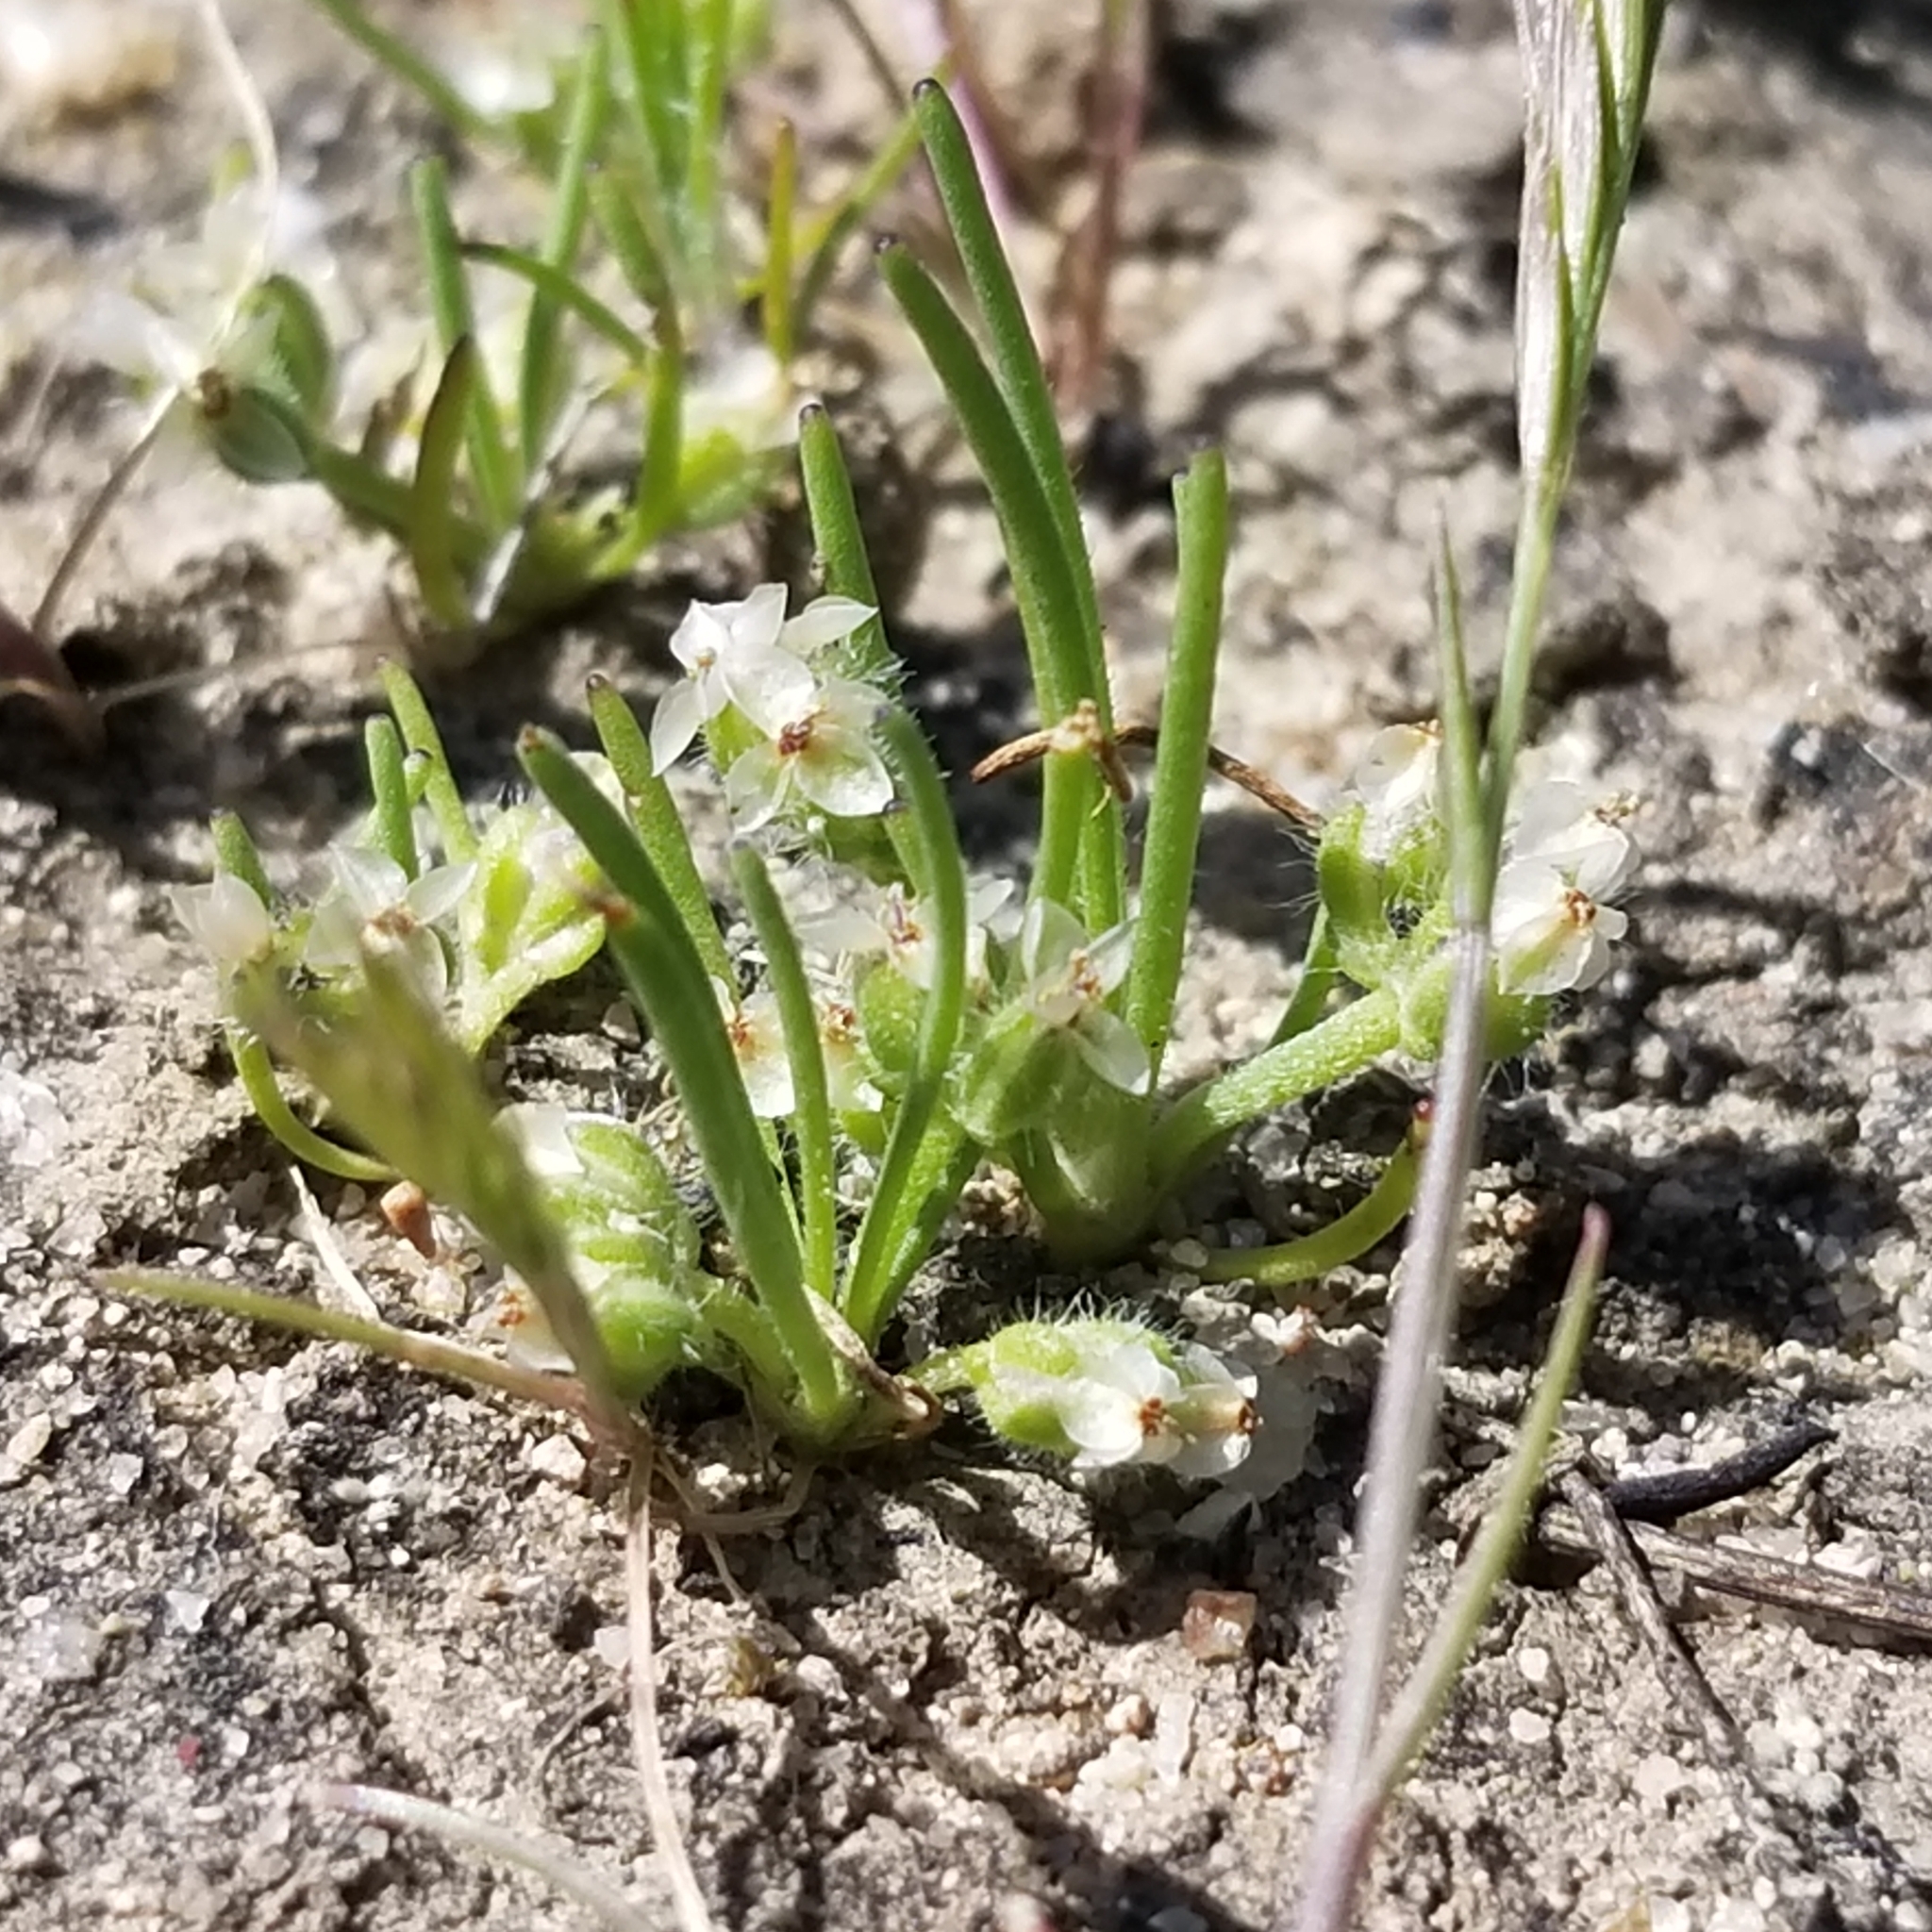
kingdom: Plantae
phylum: Tracheophyta
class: Magnoliopsida
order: Lamiales
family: Plantaginaceae
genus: Plantago
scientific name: Plantago erecta
